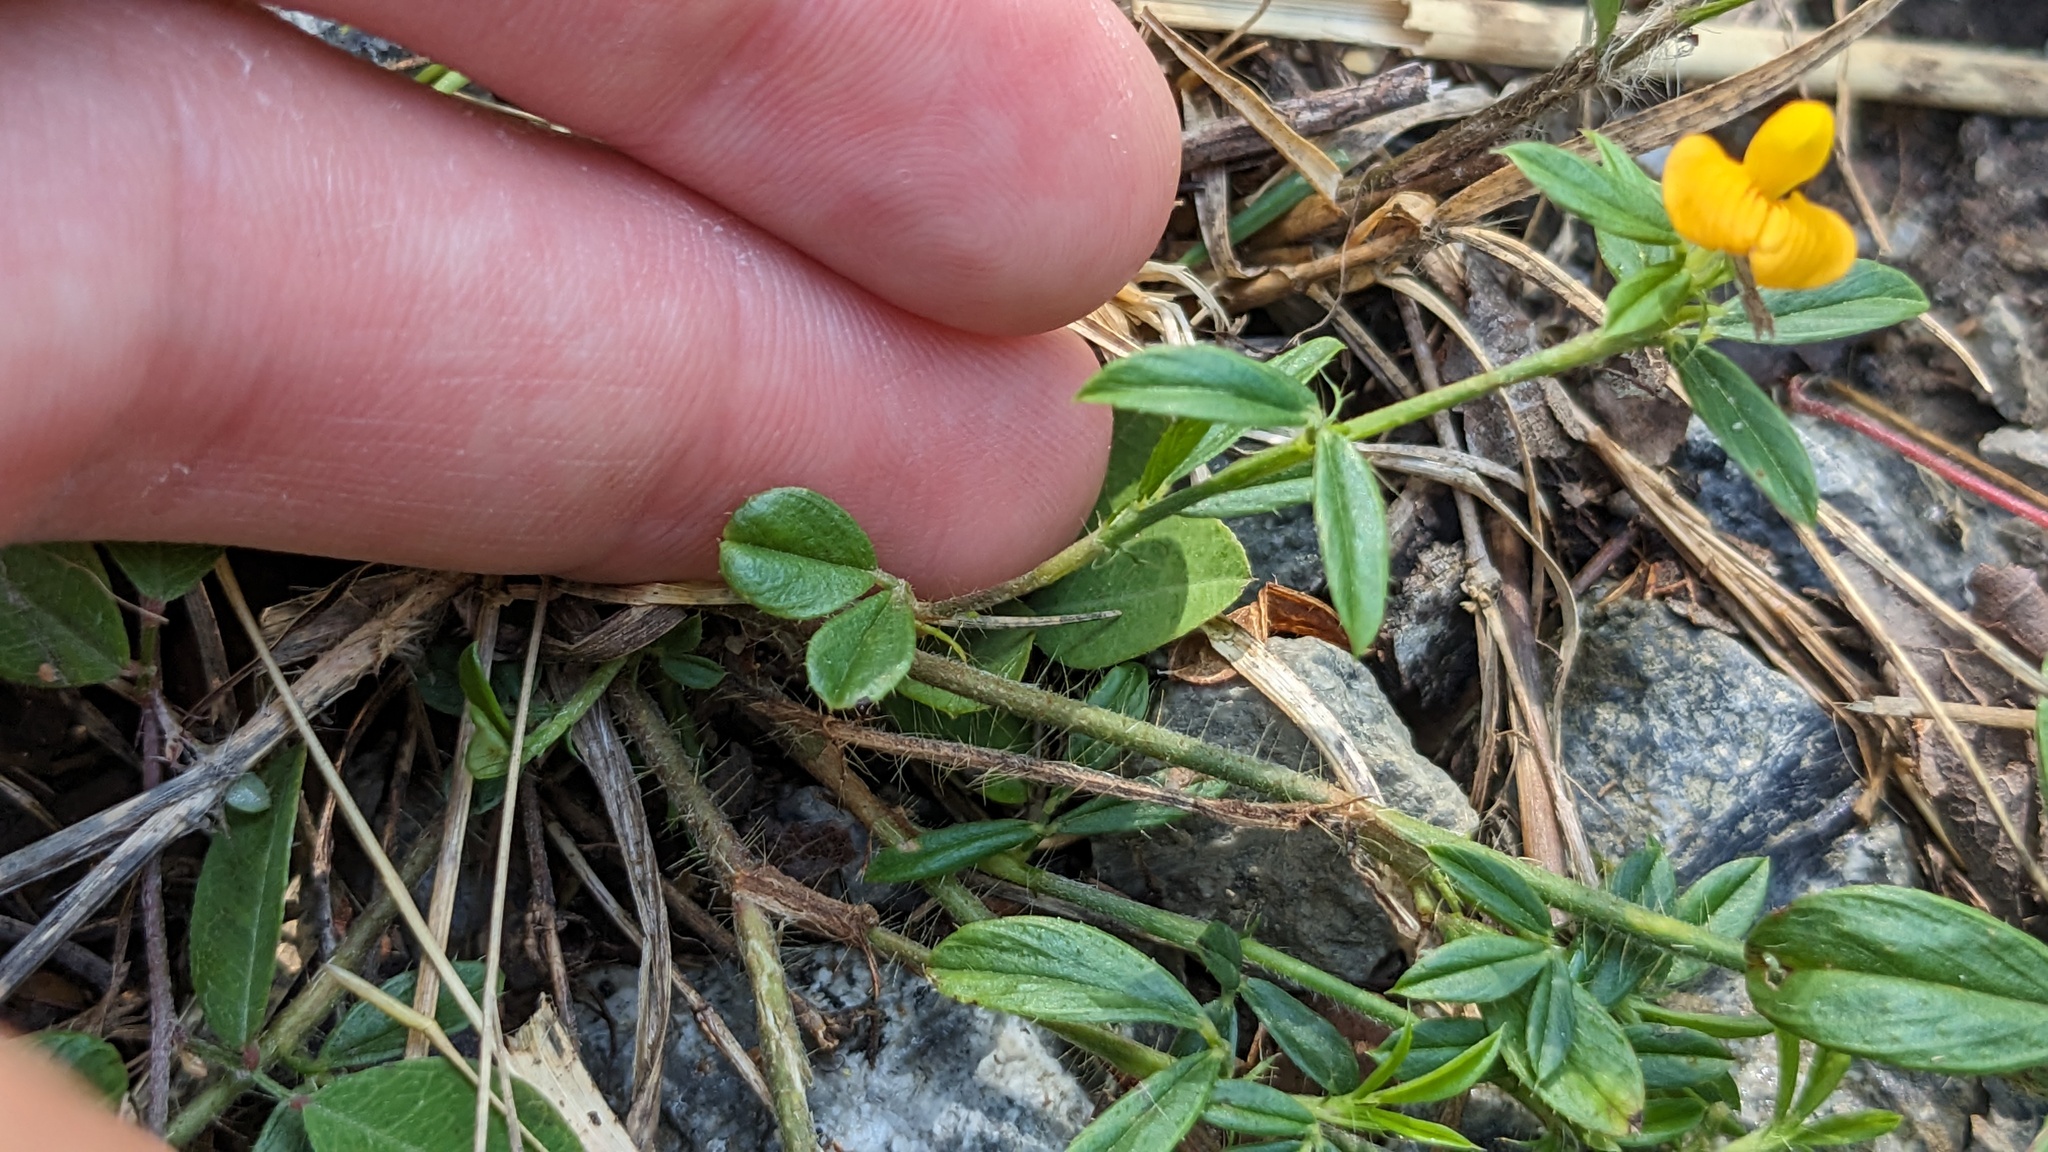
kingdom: Plantae
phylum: Tracheophyta
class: Magnoliopsida
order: Fabales
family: Fabaceae
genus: Stylosanthes
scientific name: Stylosanthes biflora
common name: Two-flower pencil-flower
